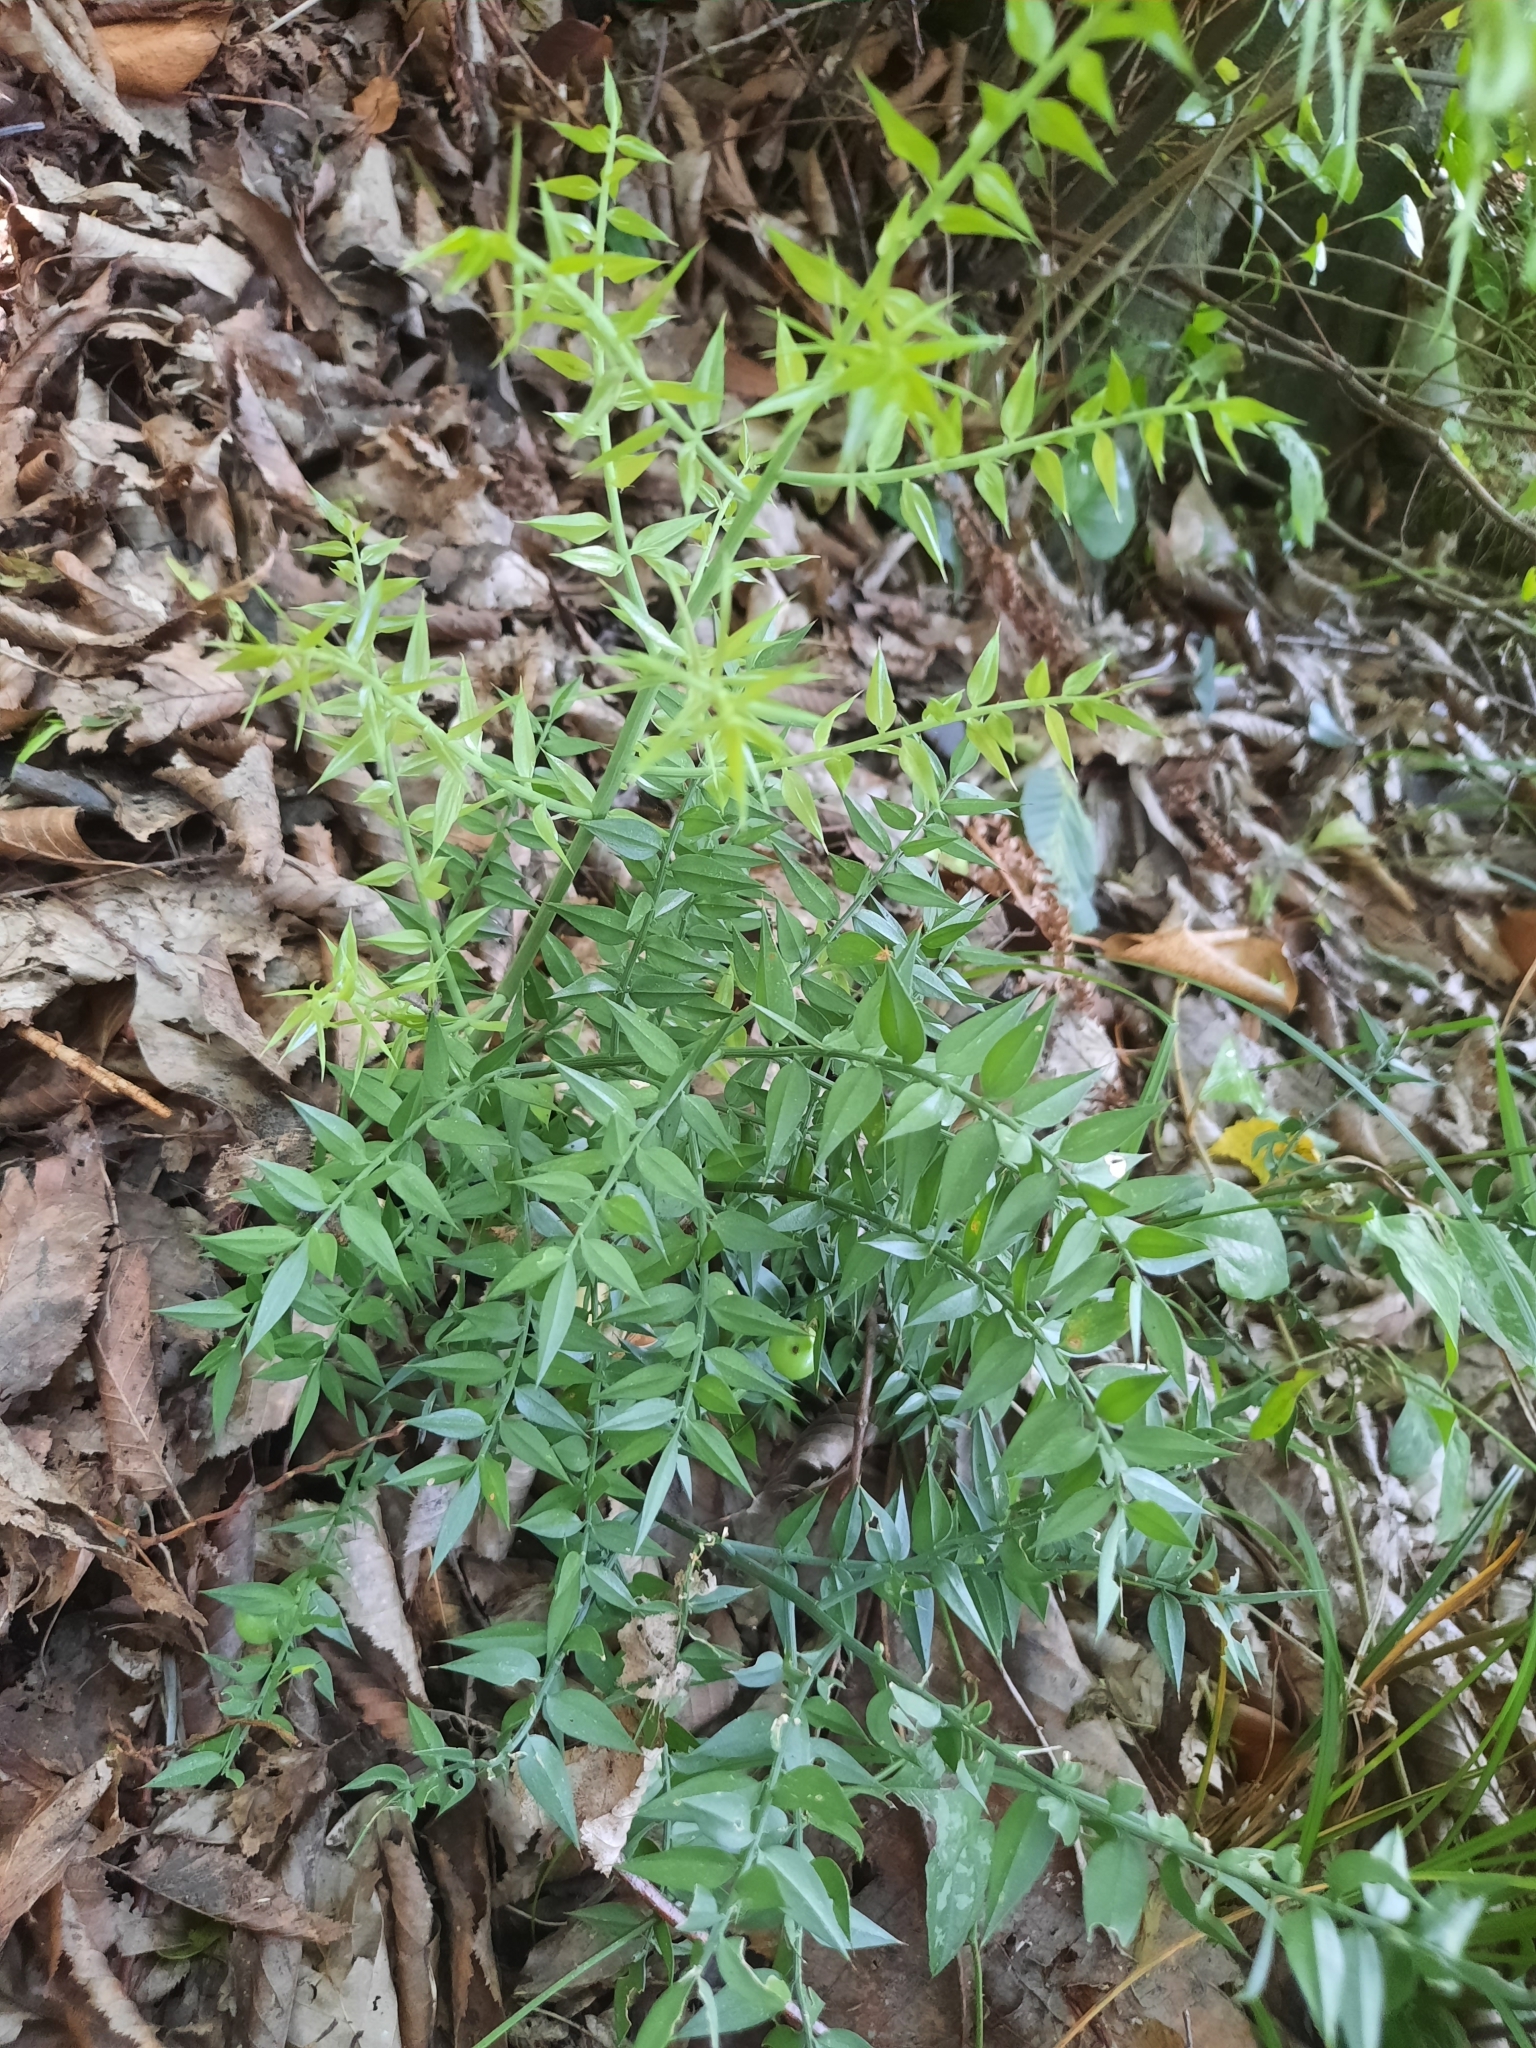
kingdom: Plantae
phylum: Tracheophyta
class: Liliopsida
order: Asparagales
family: Asparagaceae
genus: Ruscus
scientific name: Ruscus aculeatus
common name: Butcher's-broom
